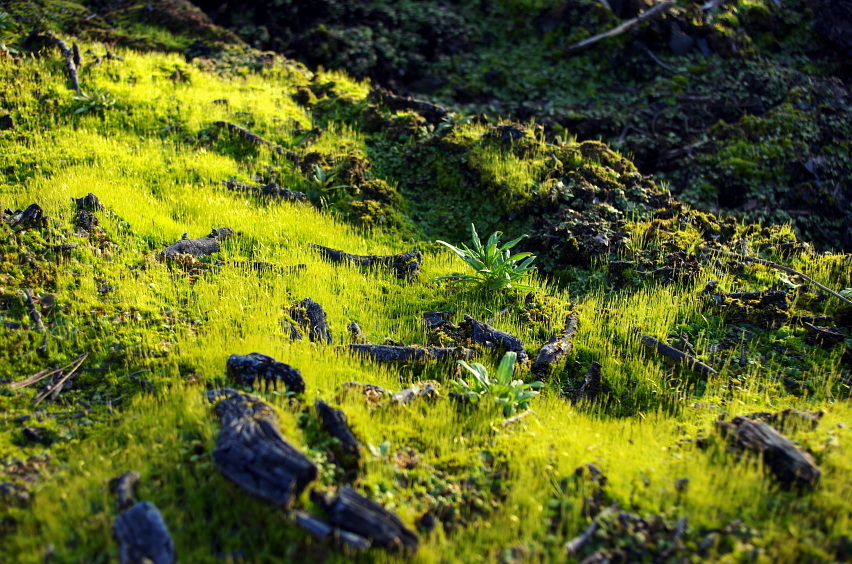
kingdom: Plantae
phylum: Tracheophyta
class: Magnoliopsida
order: Myrtales
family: Onagraceae
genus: Chamaenerion
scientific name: Chamaenerion angustifolium
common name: Fireweed
